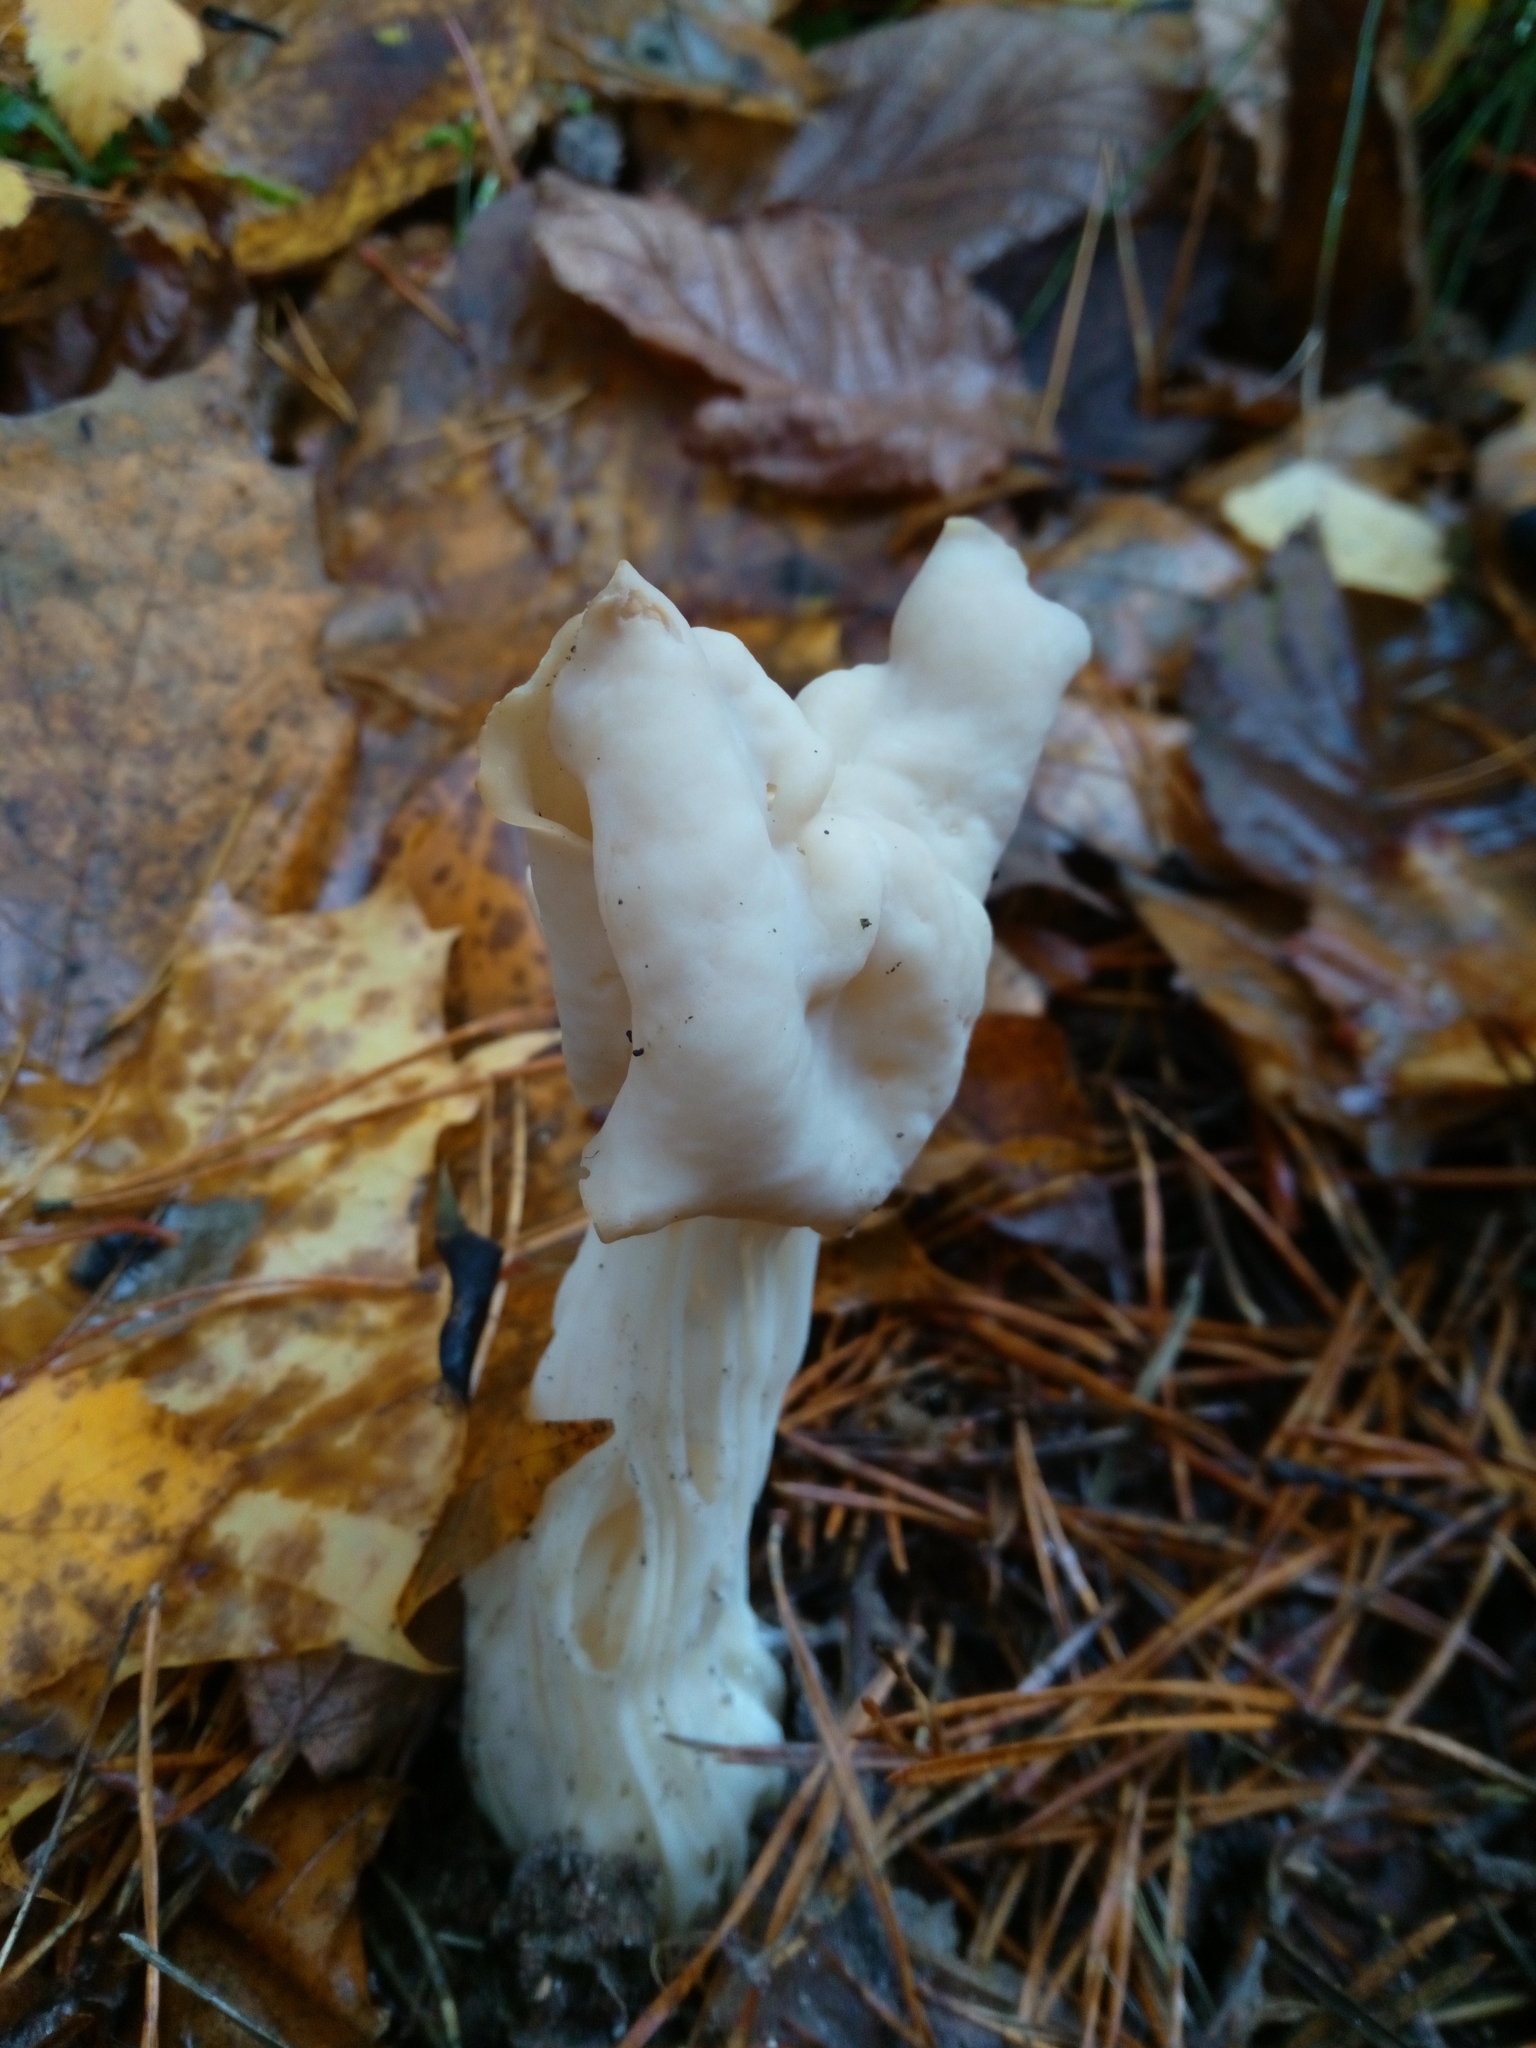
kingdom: Fungi
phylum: Ascomycota
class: Pezizomycetes
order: Pezizales
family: Helvellaceae
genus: Helvella
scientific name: Helvella crispa
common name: White saddle
